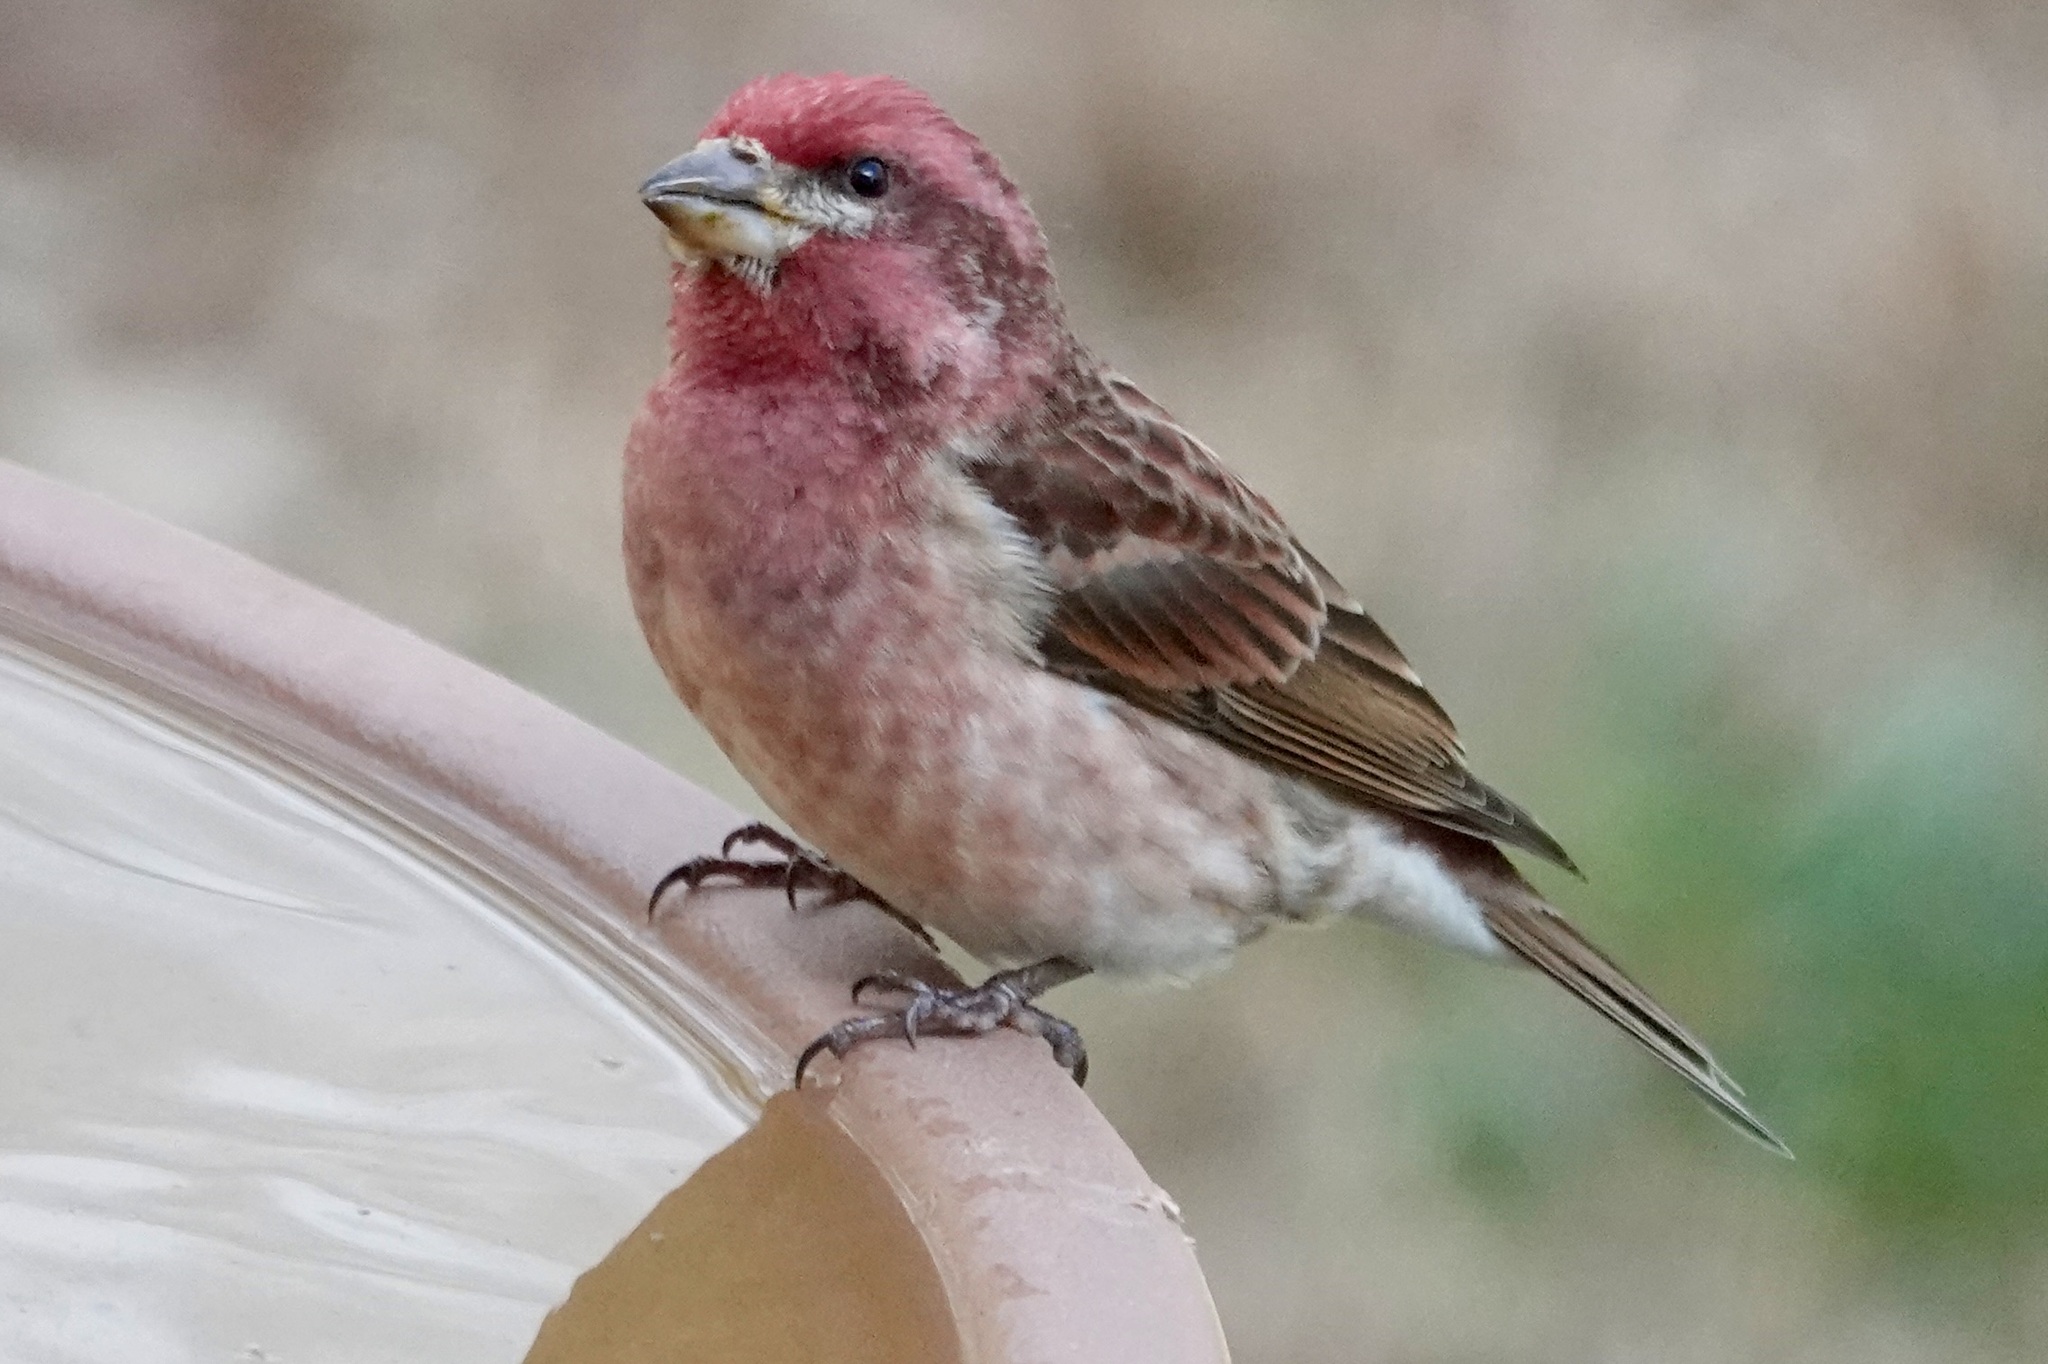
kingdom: Animalia
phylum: Chordata
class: Aves
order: Passeriformes
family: Fringillidae
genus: Haemorhous
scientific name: Haemorhous purpureus
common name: Purple finch
